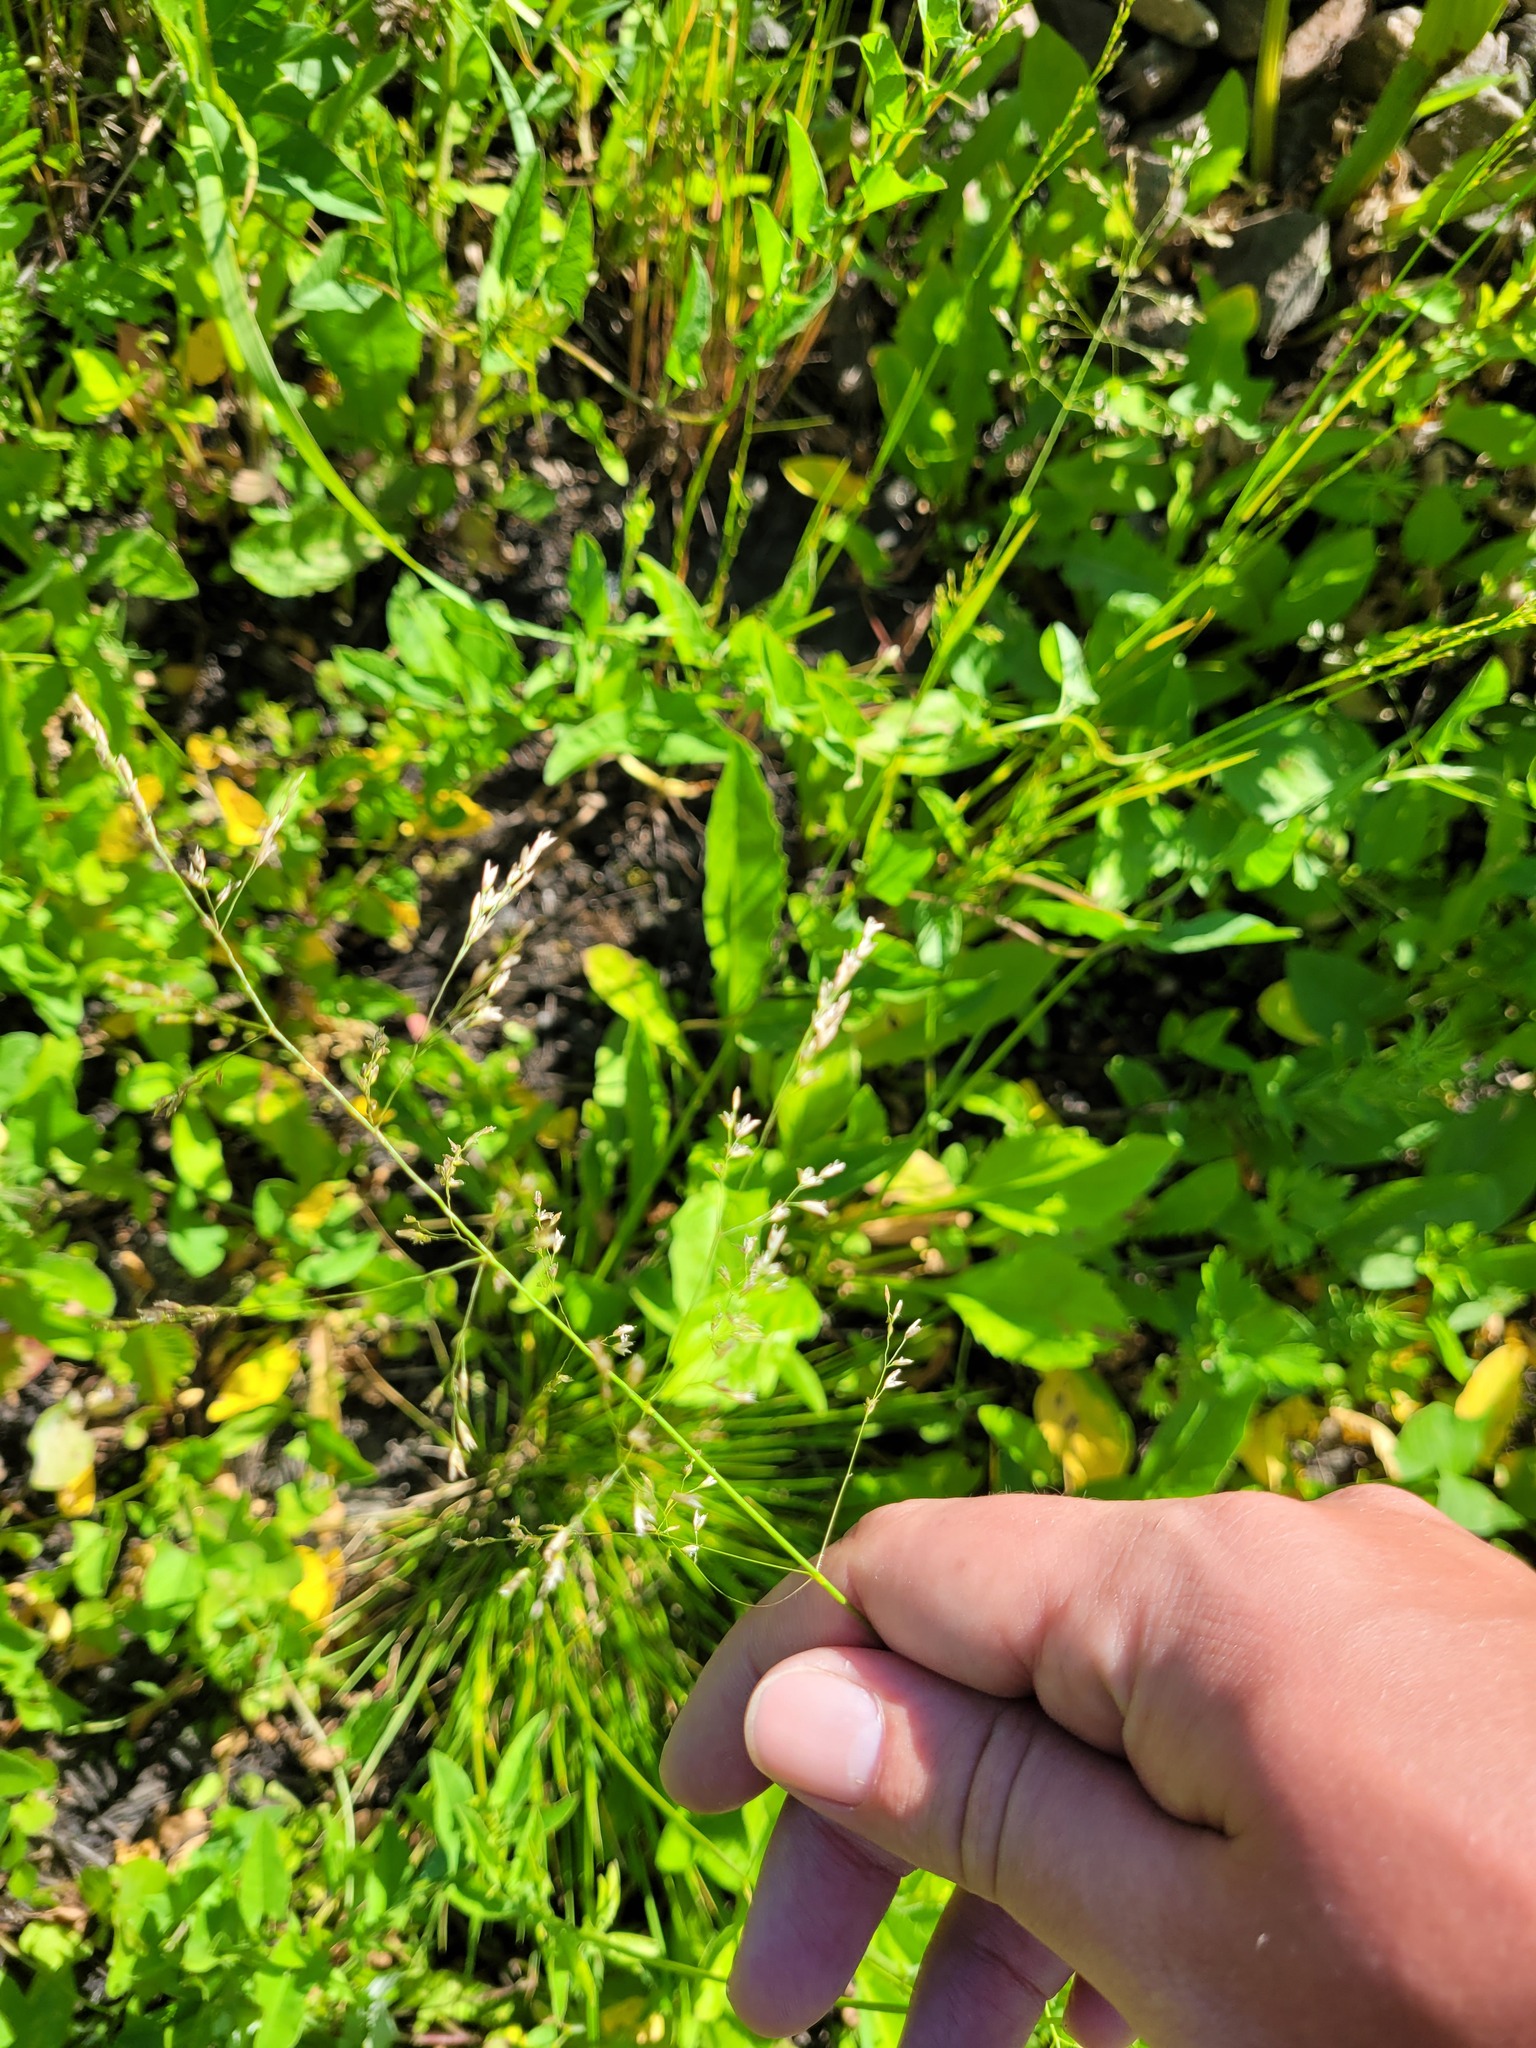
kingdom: Plantae
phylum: Tracheophyta
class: Liliopsida
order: Poales
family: Poaceae
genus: Deschampsia
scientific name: Deschampsia cespitosa
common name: Tufted hair-grass
